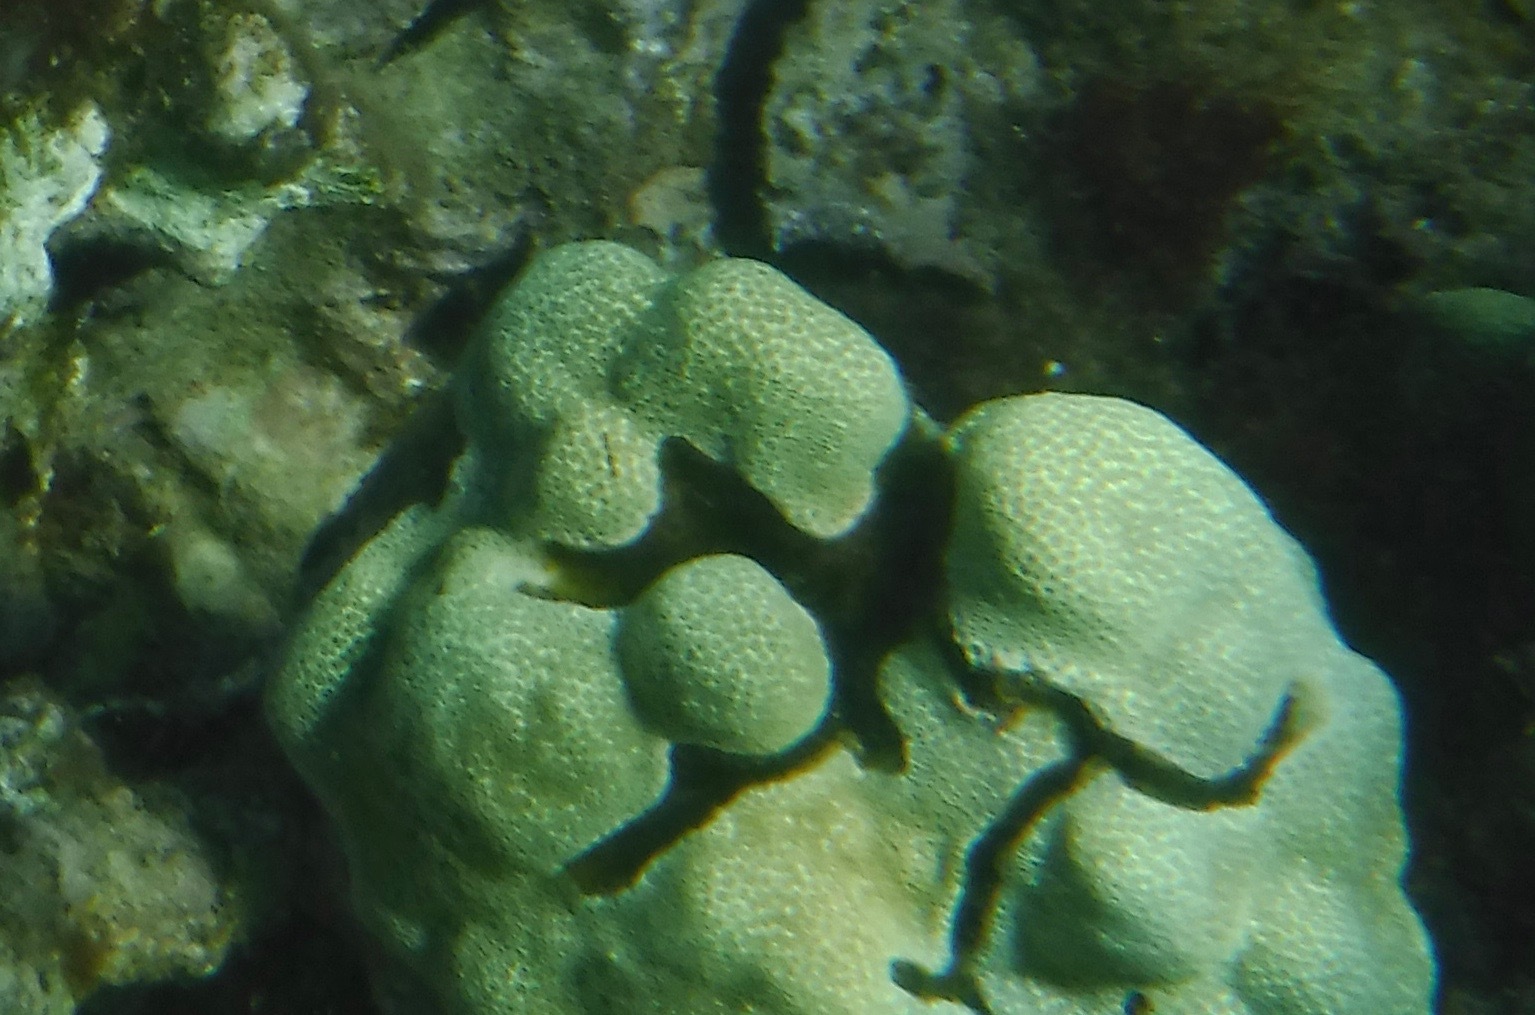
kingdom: Animalia
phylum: Arthropoda
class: Malacostraca
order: Decapoda
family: Alpheidae
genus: Alpheus
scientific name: Alpheus deuteropus
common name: Petroglyph shrimp
